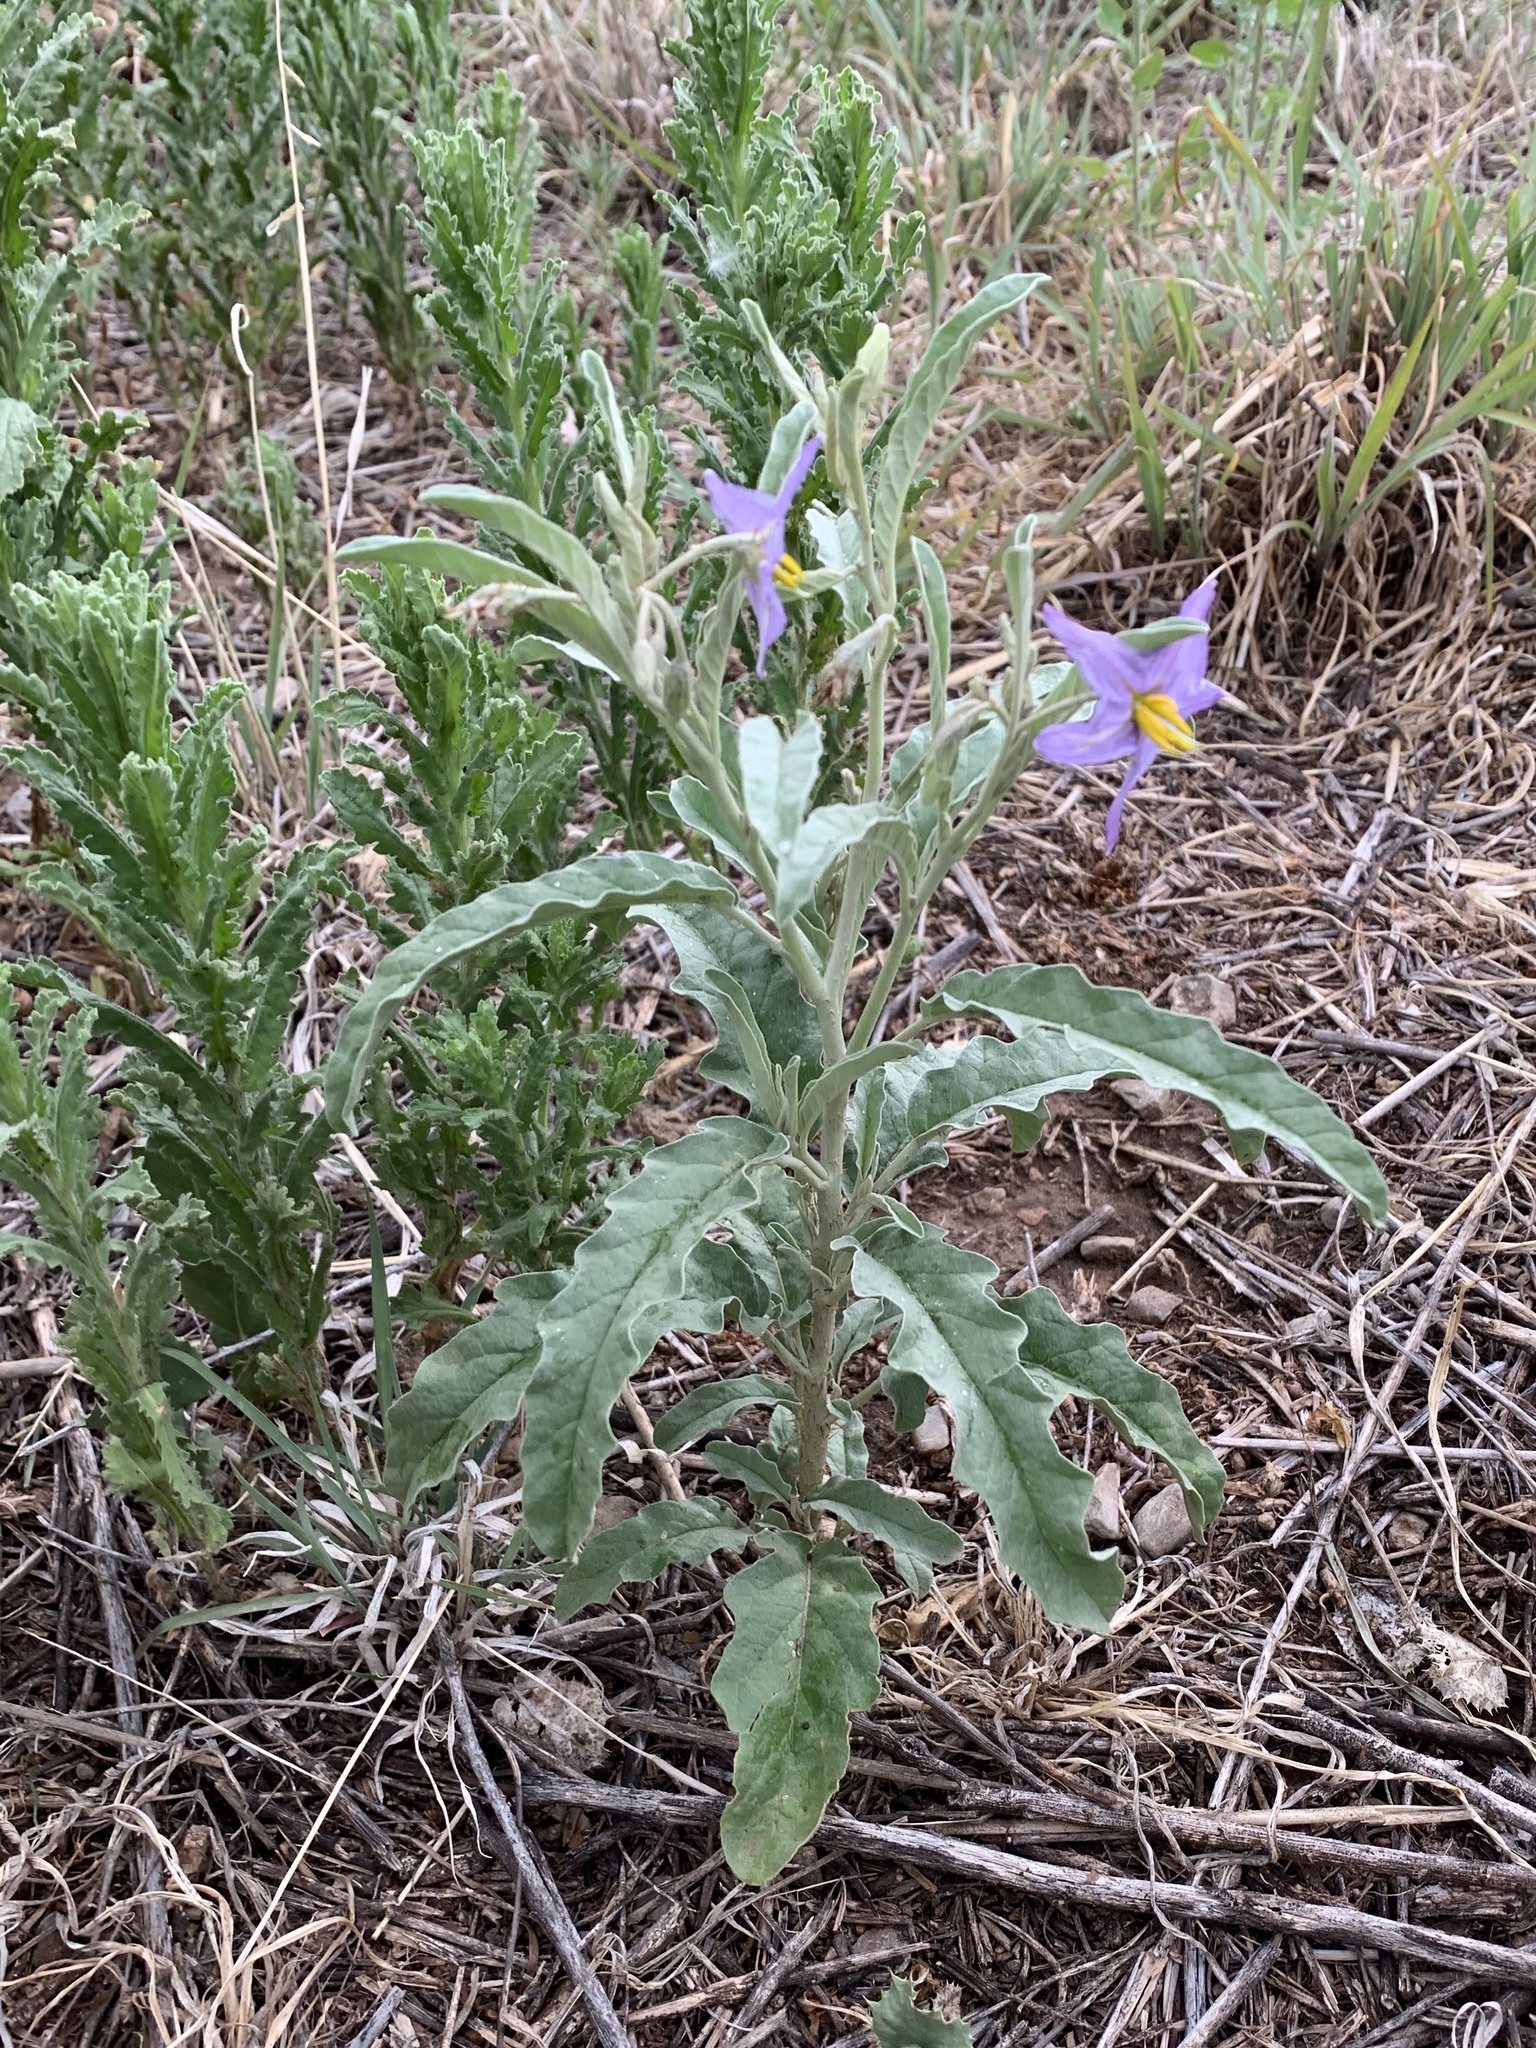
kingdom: Plantae
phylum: Tracheophyta
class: Magnoliopsida
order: Solanales
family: Solanaceae
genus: Solanum
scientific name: Solanum elaeagnifolium
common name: Silverleaf nightshade
